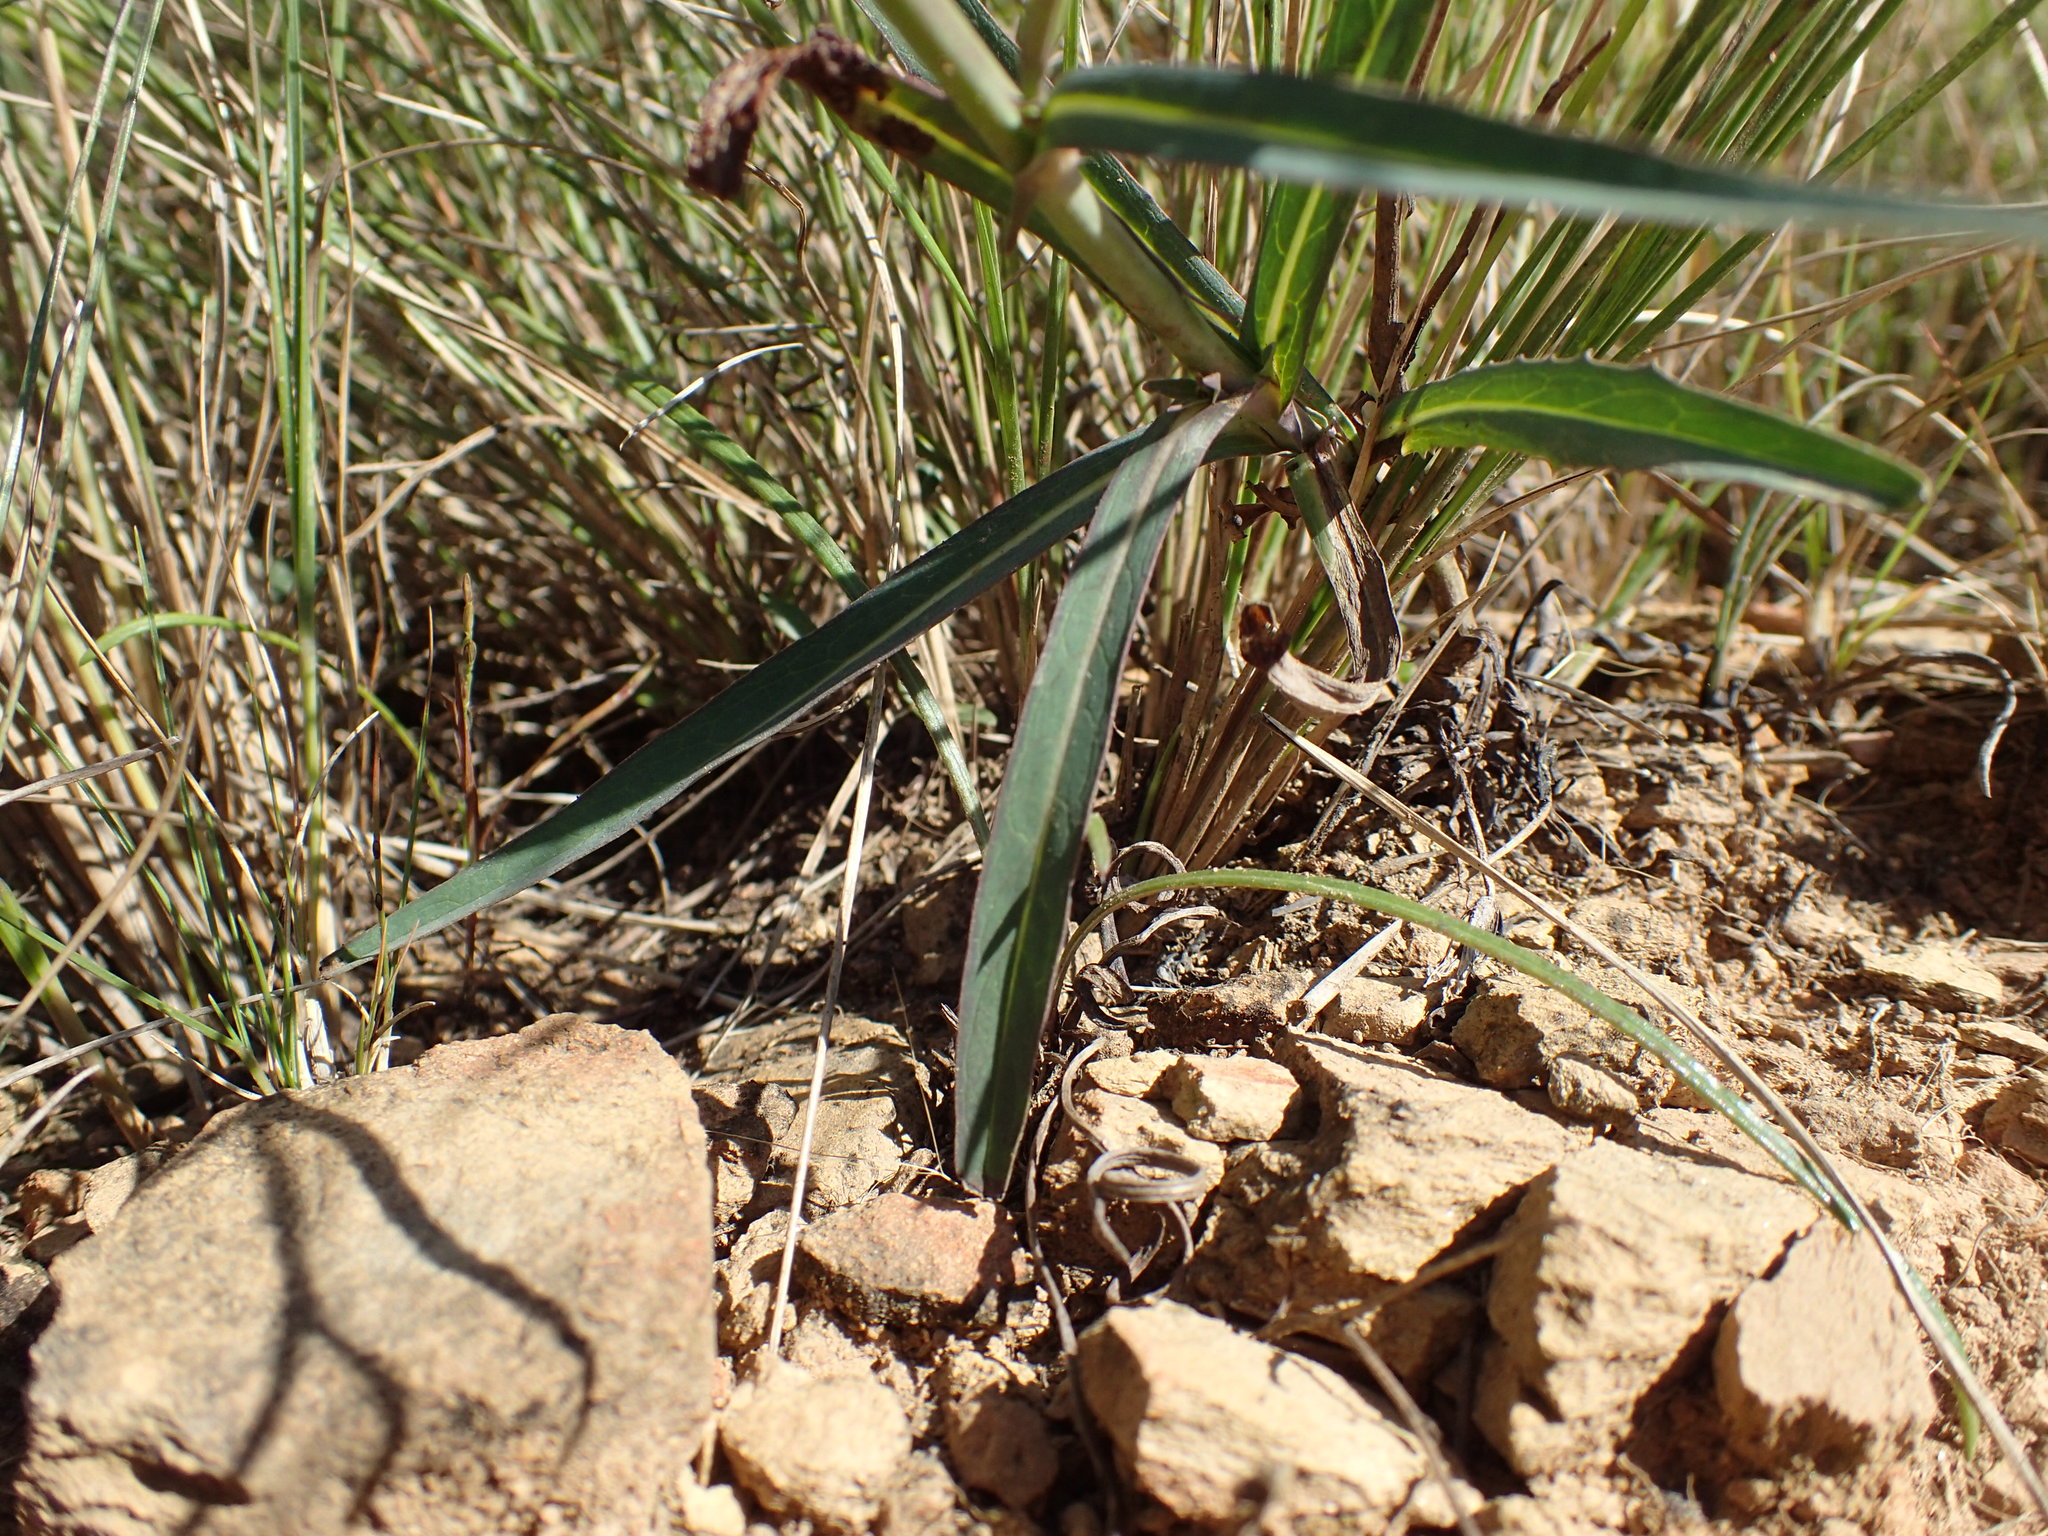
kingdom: Plantae
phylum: Tracheophyta
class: Magnoliopsida
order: Asterales
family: Asteraceae
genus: Lactuca
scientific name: Lactuca inermis
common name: Wild lettuce
